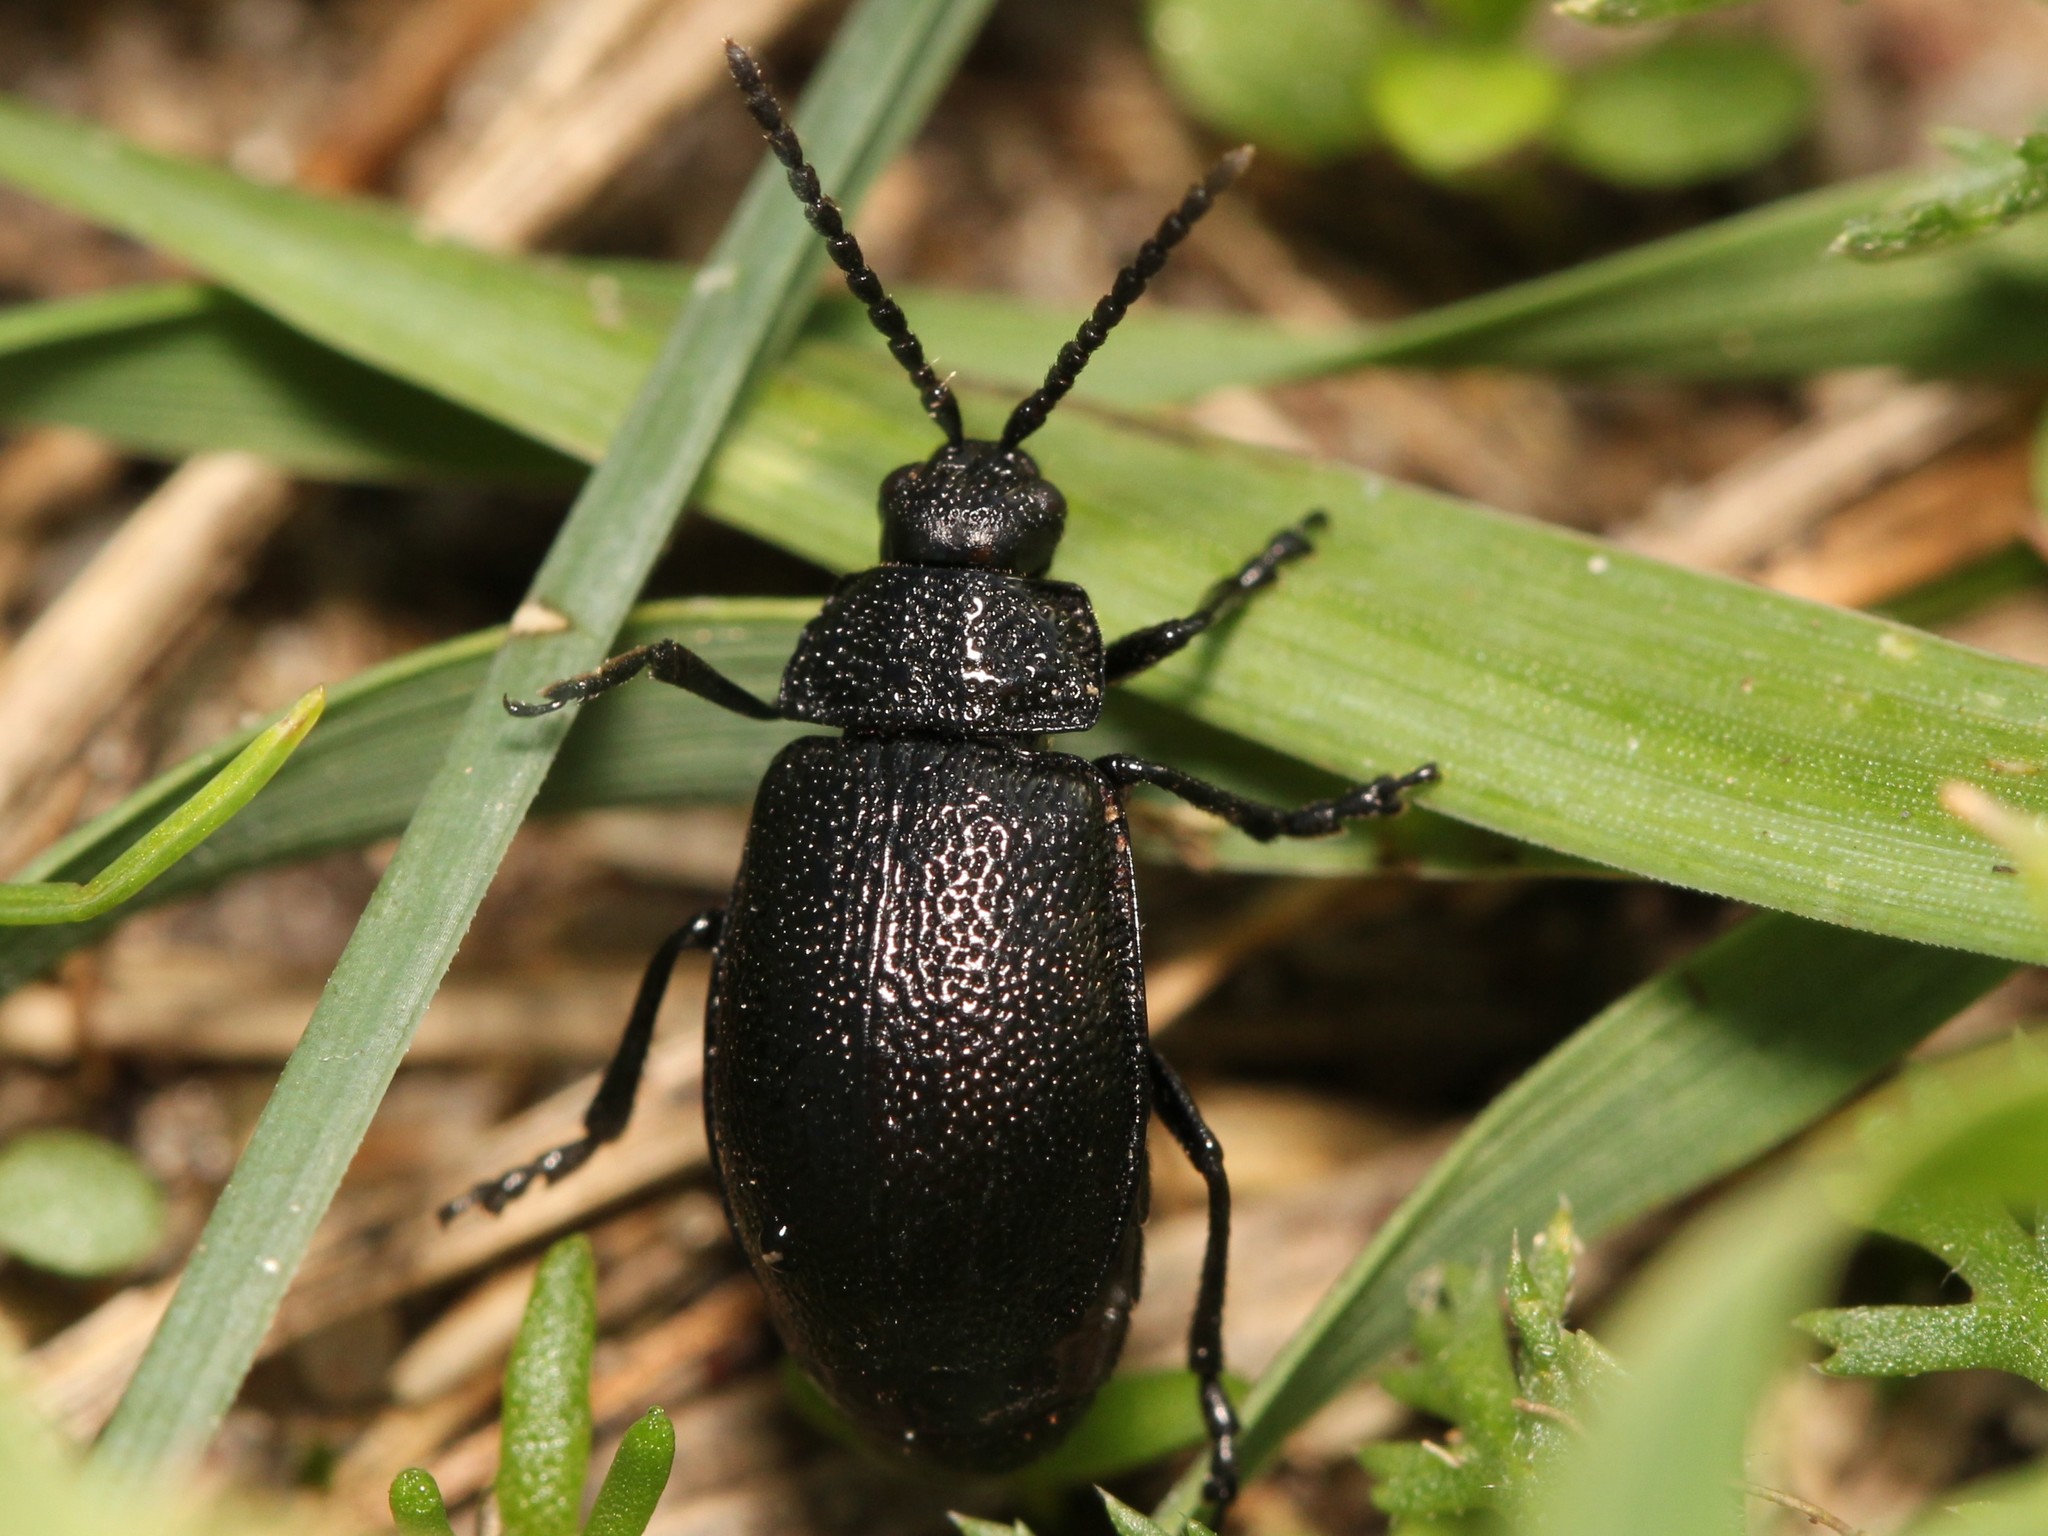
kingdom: Animalia
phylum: Arthropoda
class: Insecta
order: Coleoptera
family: Chrysomelidae
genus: Galeruca
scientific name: Galeruca tanaceti
